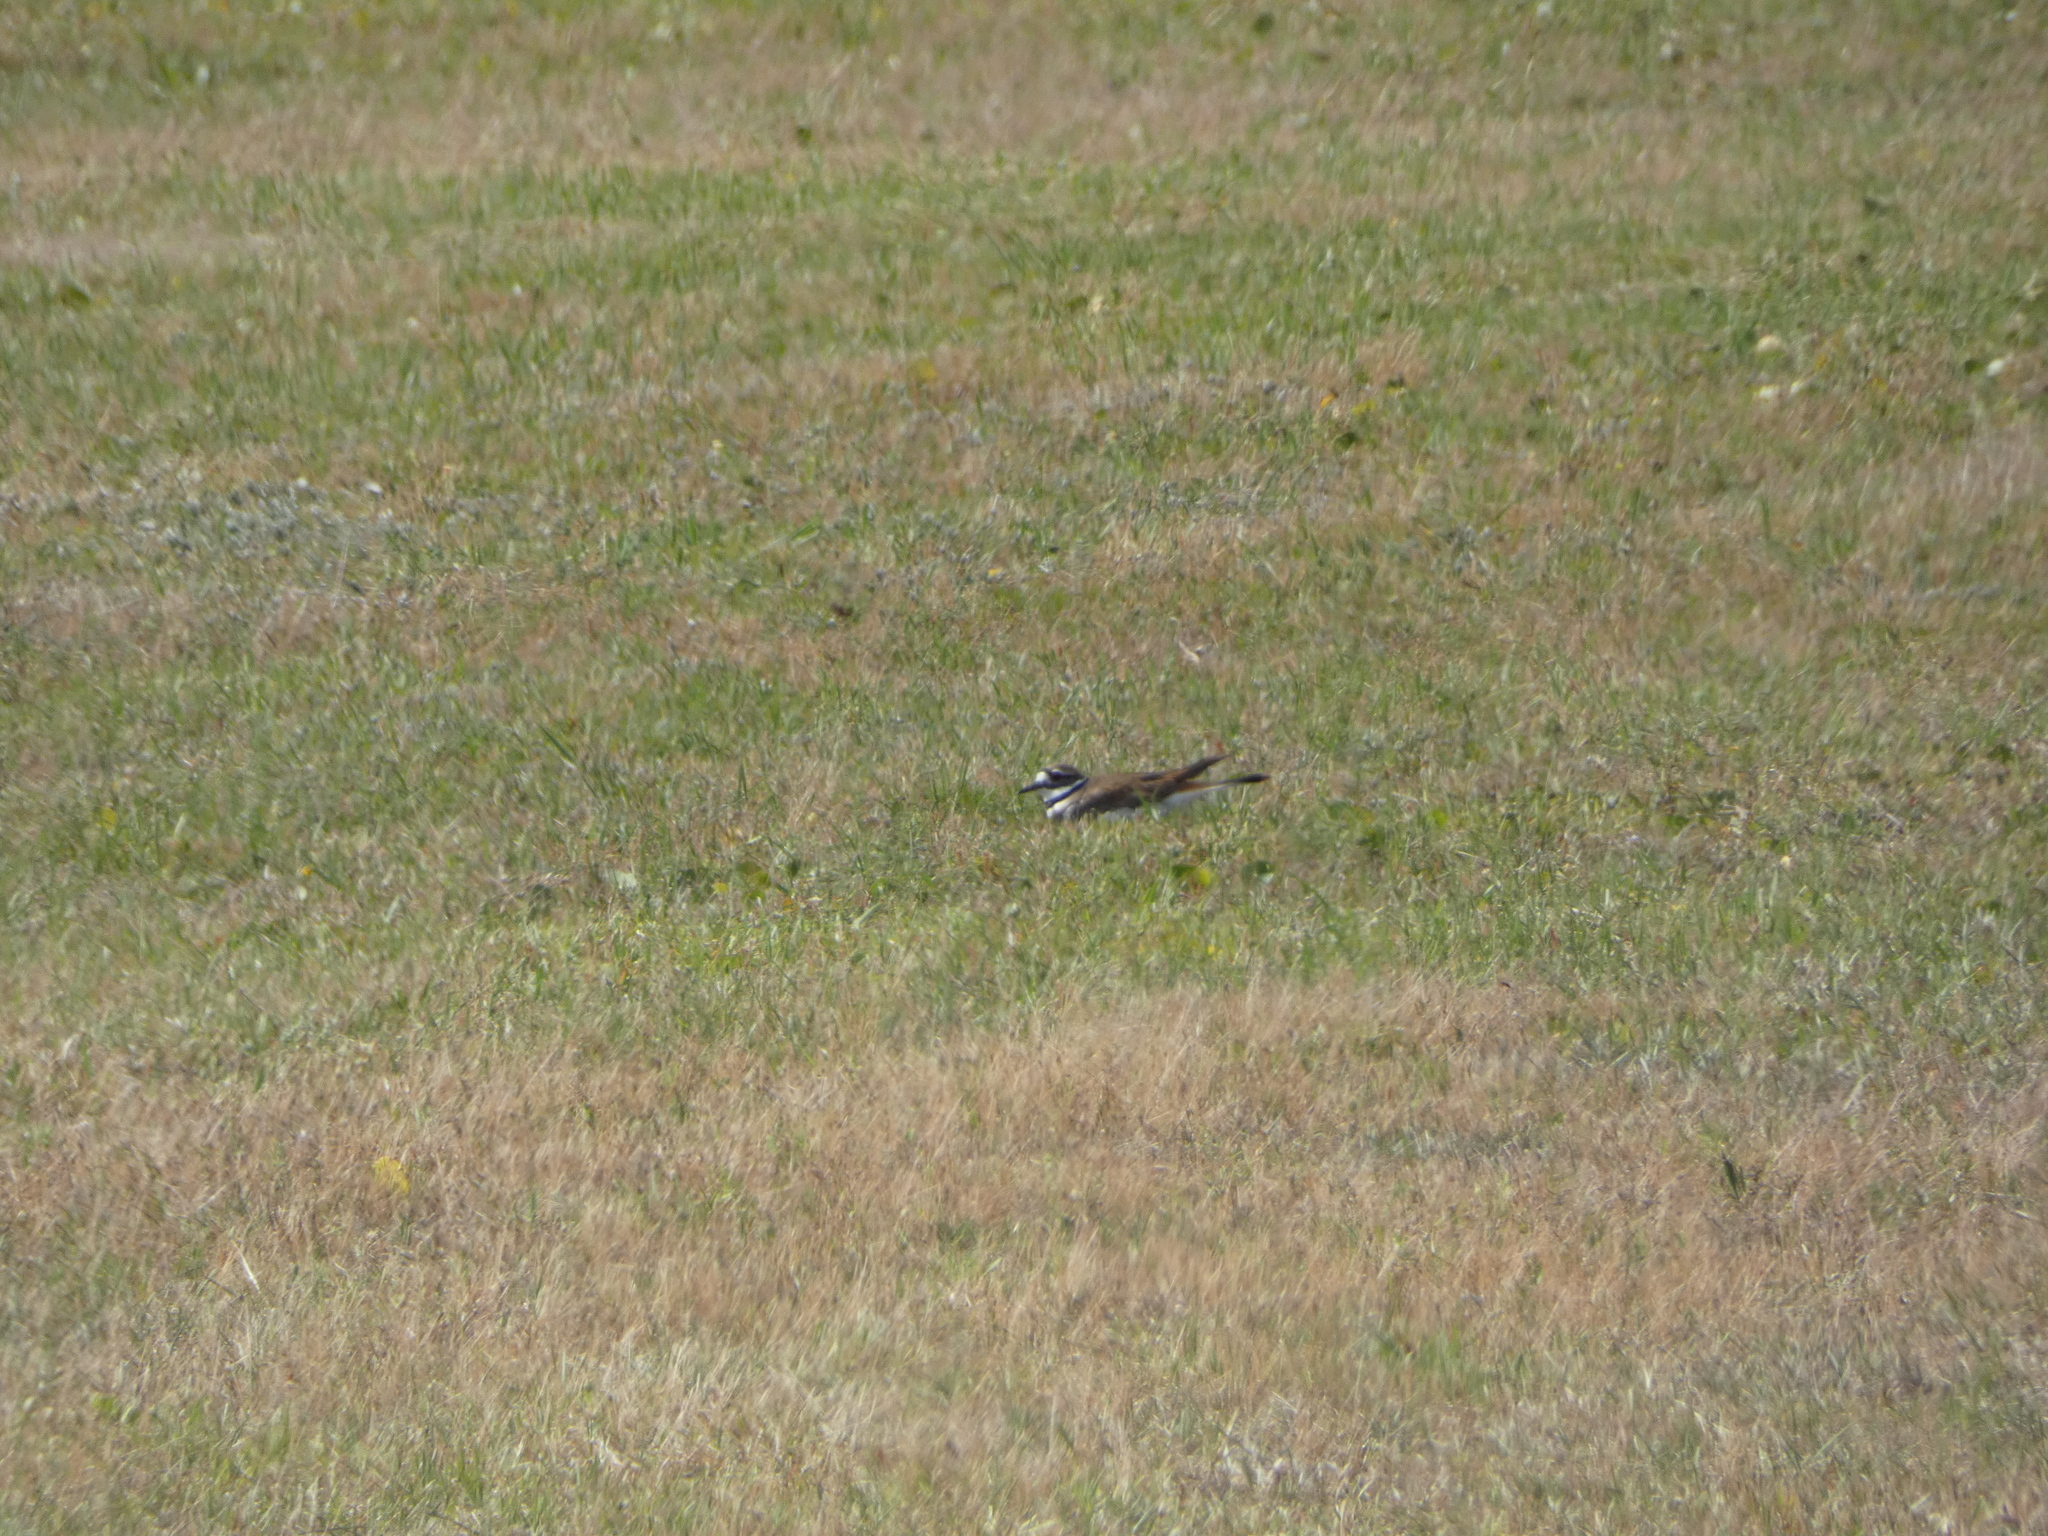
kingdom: Animalia
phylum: Chordata
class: Aves
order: Charadriiformes
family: Charadriidae
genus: Charadrius
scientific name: Charadrius vociferus
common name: Killdeer
